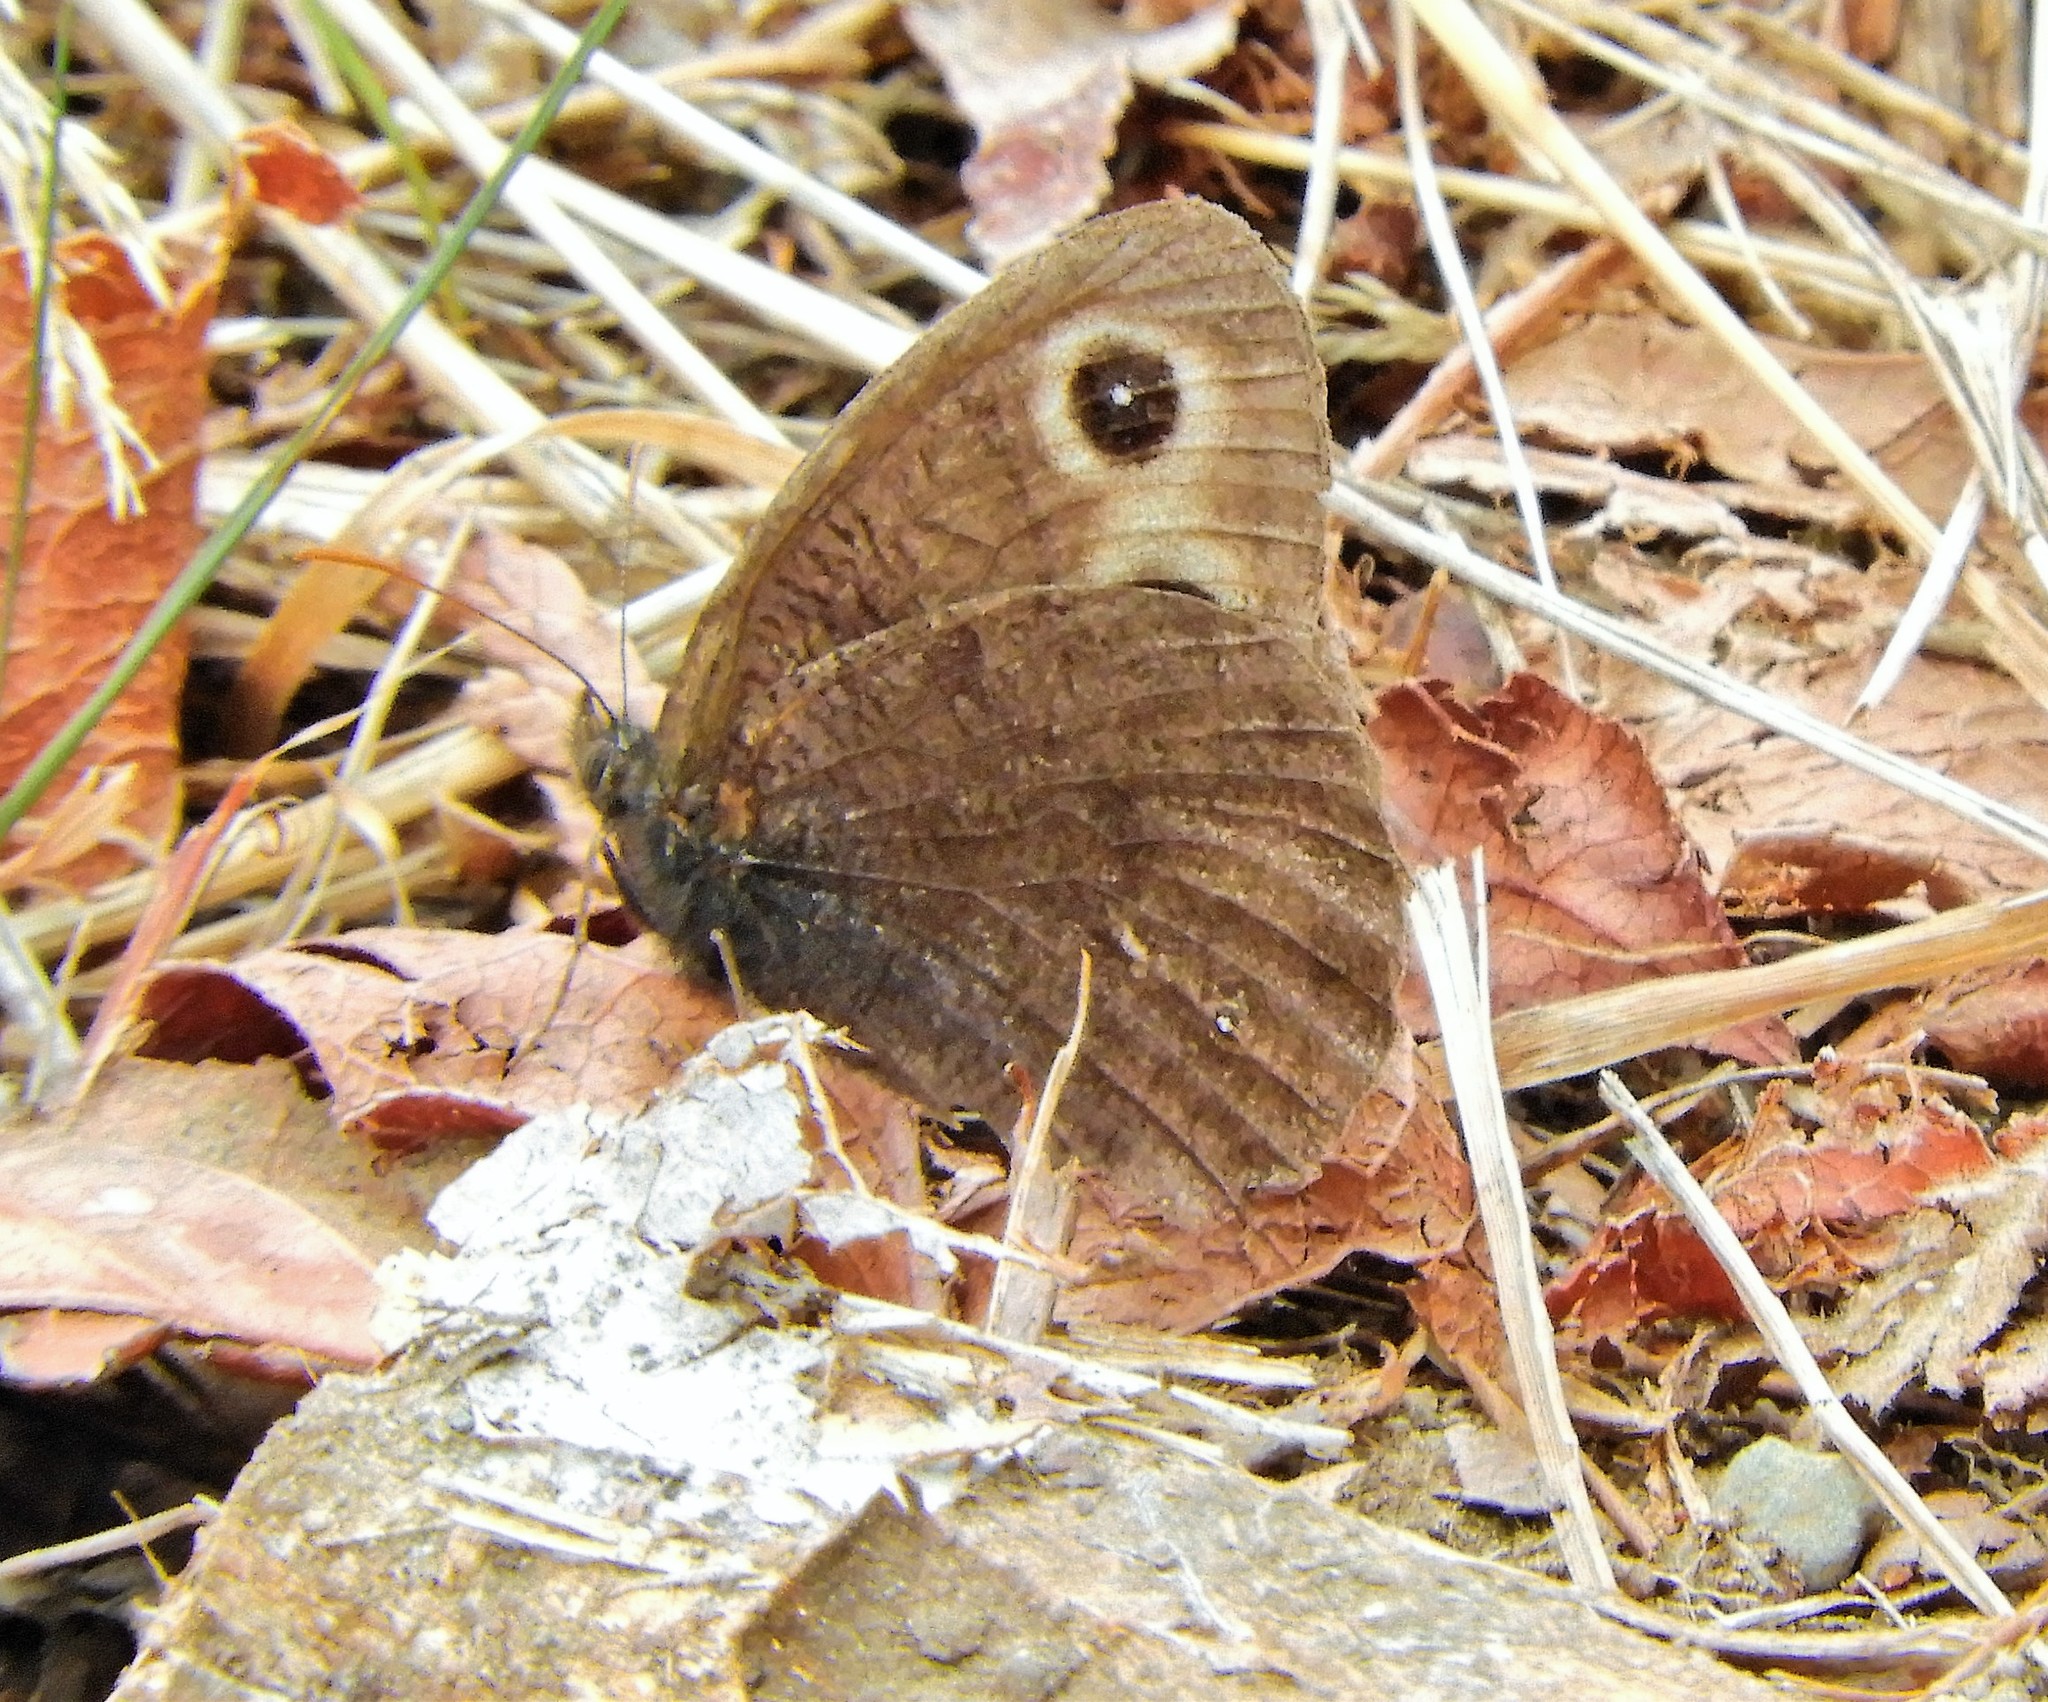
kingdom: Animalia
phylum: Arthropoda
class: Insecta
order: Lepidoptera
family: Nymphalidae
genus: Cercyonis
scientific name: Cercyonis pegala
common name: Common wood-nymph
